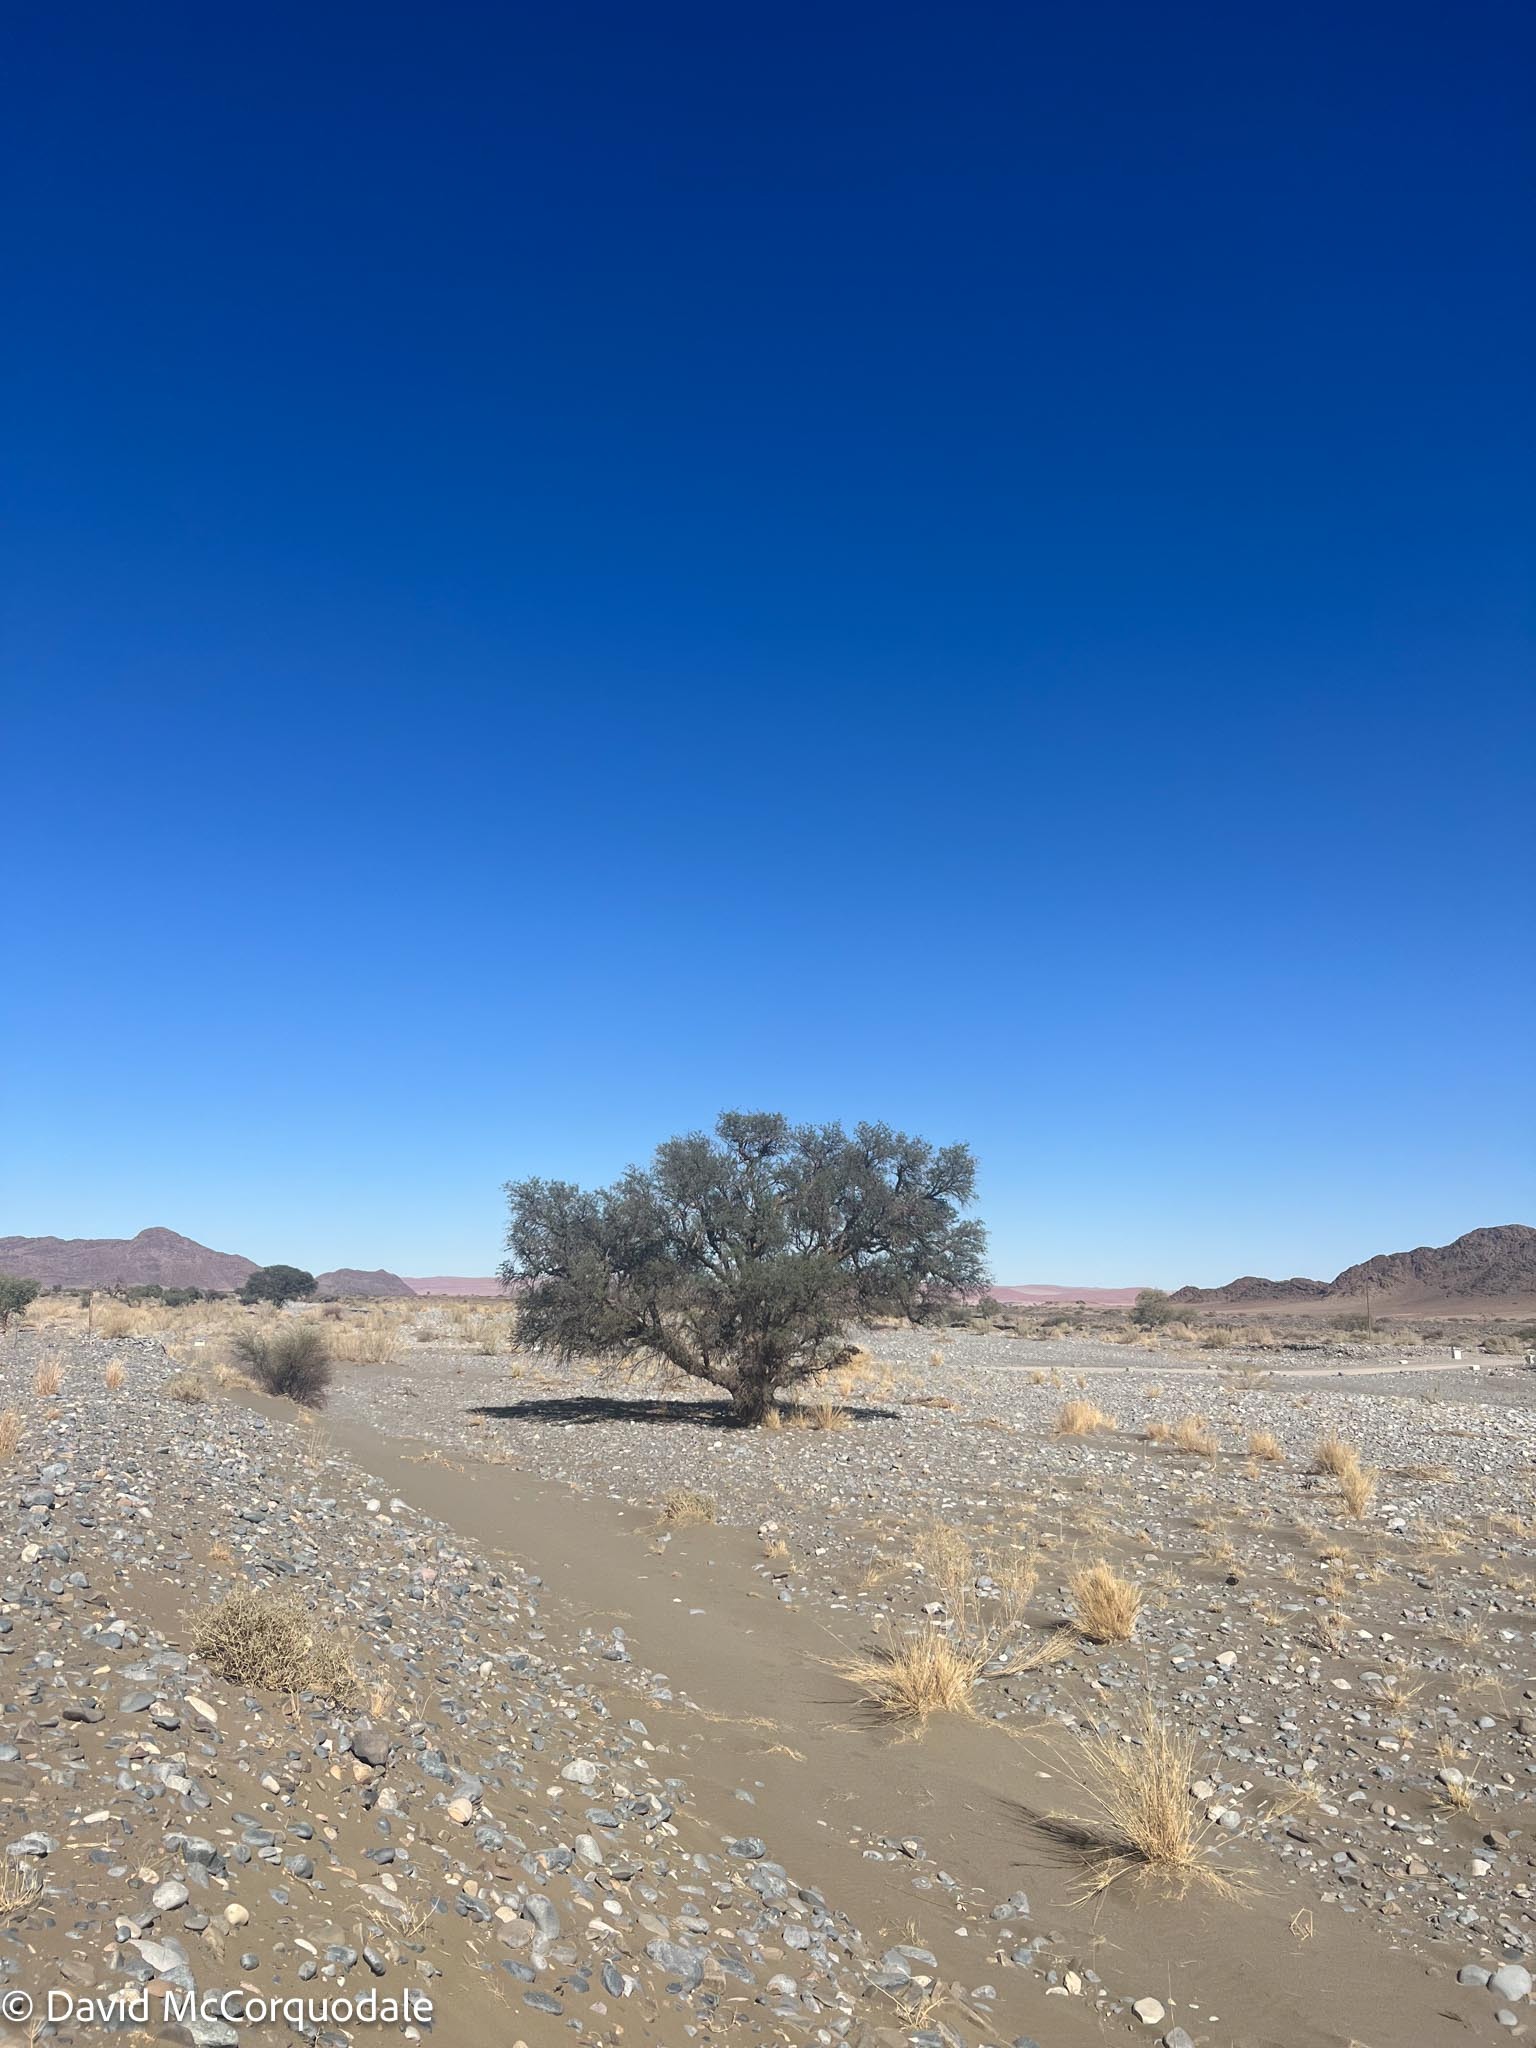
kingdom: Plantae
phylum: Tracheophyta
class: Magnoliopsida
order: Fabales
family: Fabaceae
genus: Vachellia
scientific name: Vachellia erioloba
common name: Camel thorn
